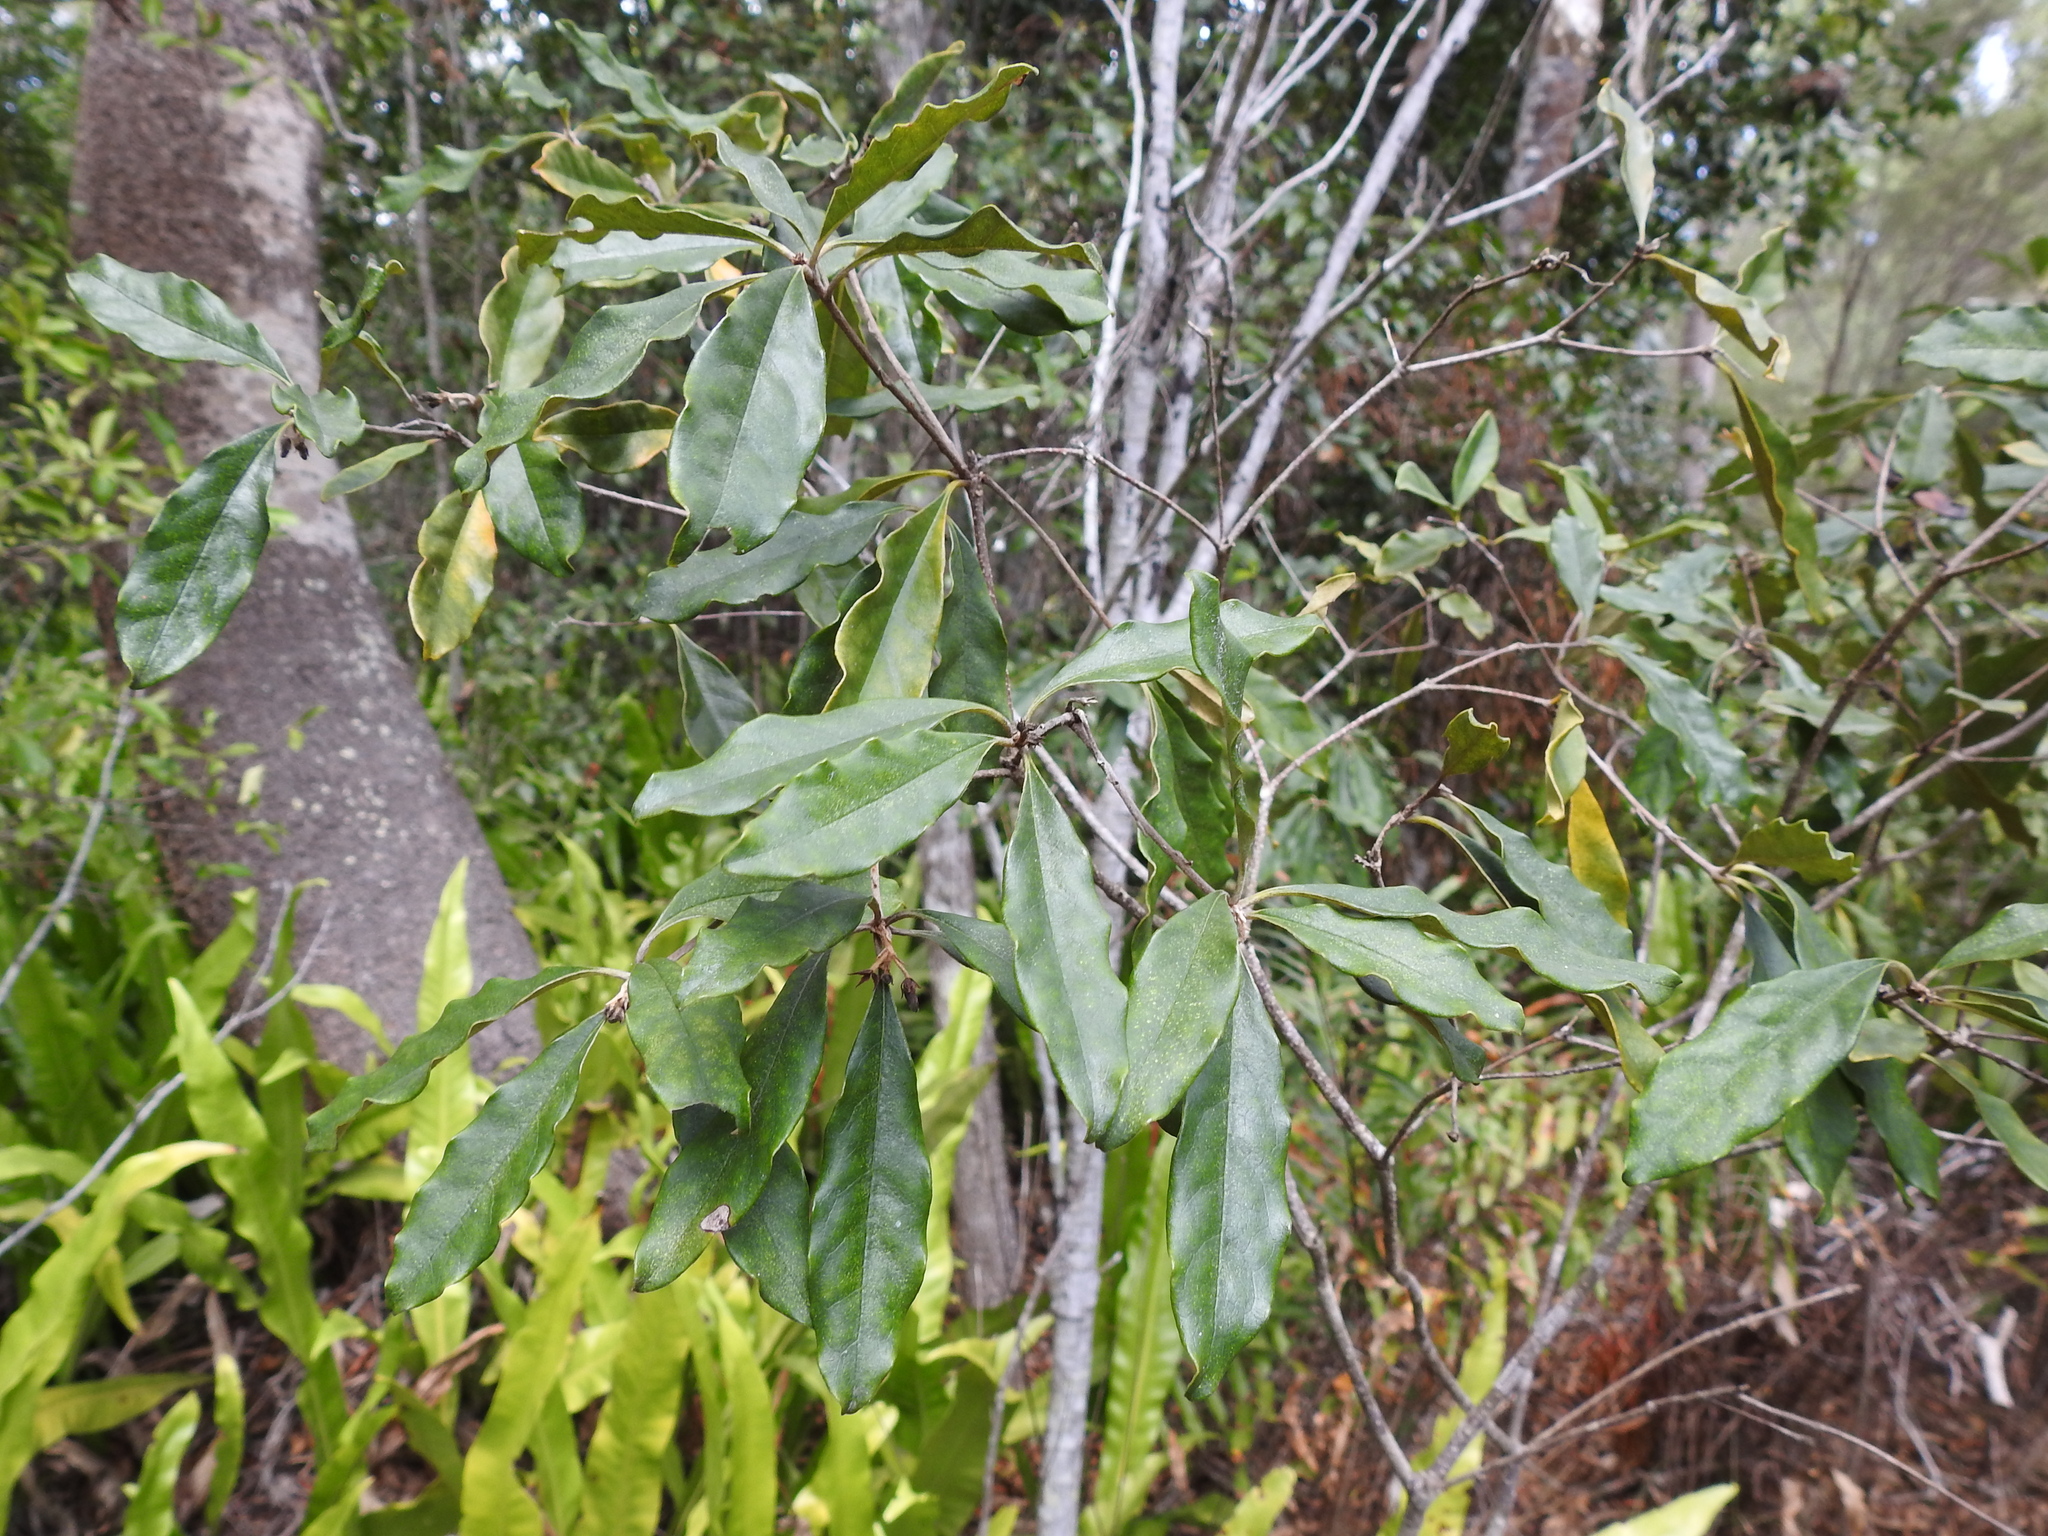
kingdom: Plantae
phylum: Tracheophyta
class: Magnoliopsida
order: Apiales
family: Pittosporaceae
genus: Pittosporum
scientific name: Pittosporum revolutum
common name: Brisbane-laurel
